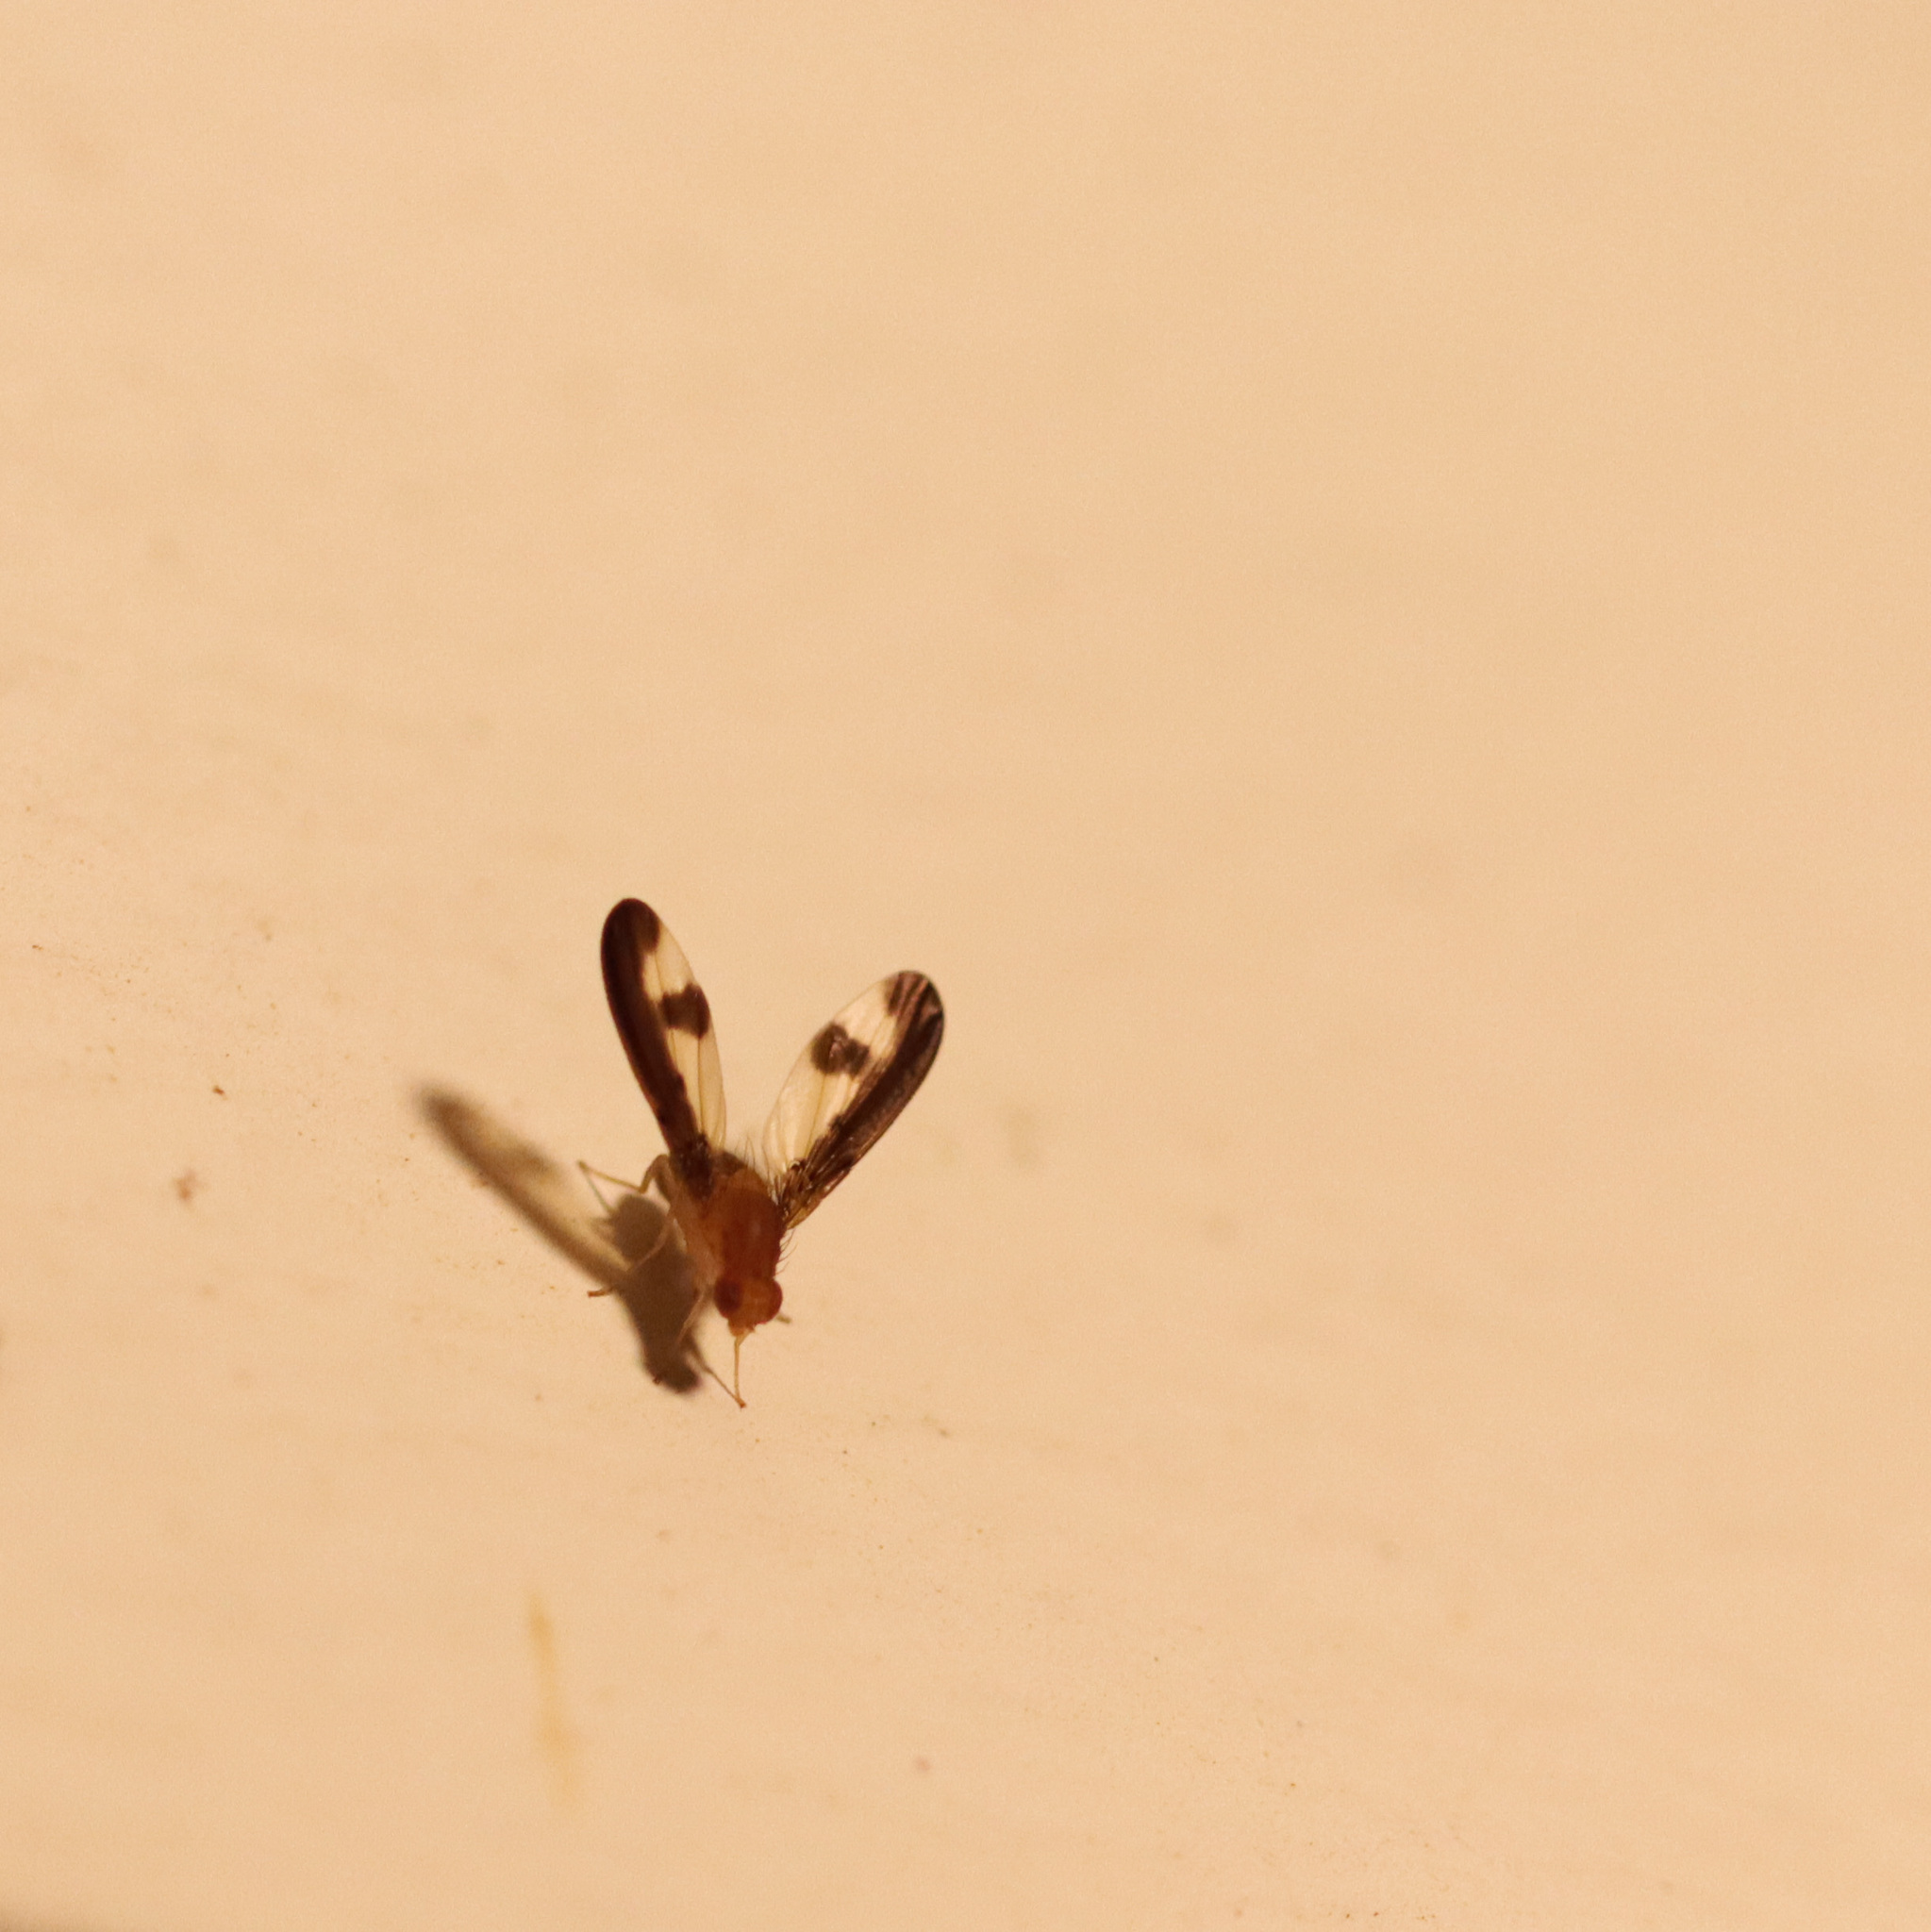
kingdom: Animalia
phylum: Arthropoda
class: Insecta
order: Diptera
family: Pallopteridae
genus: Toxonevra
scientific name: Toxonevra superba
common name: Antlered flutter fly
